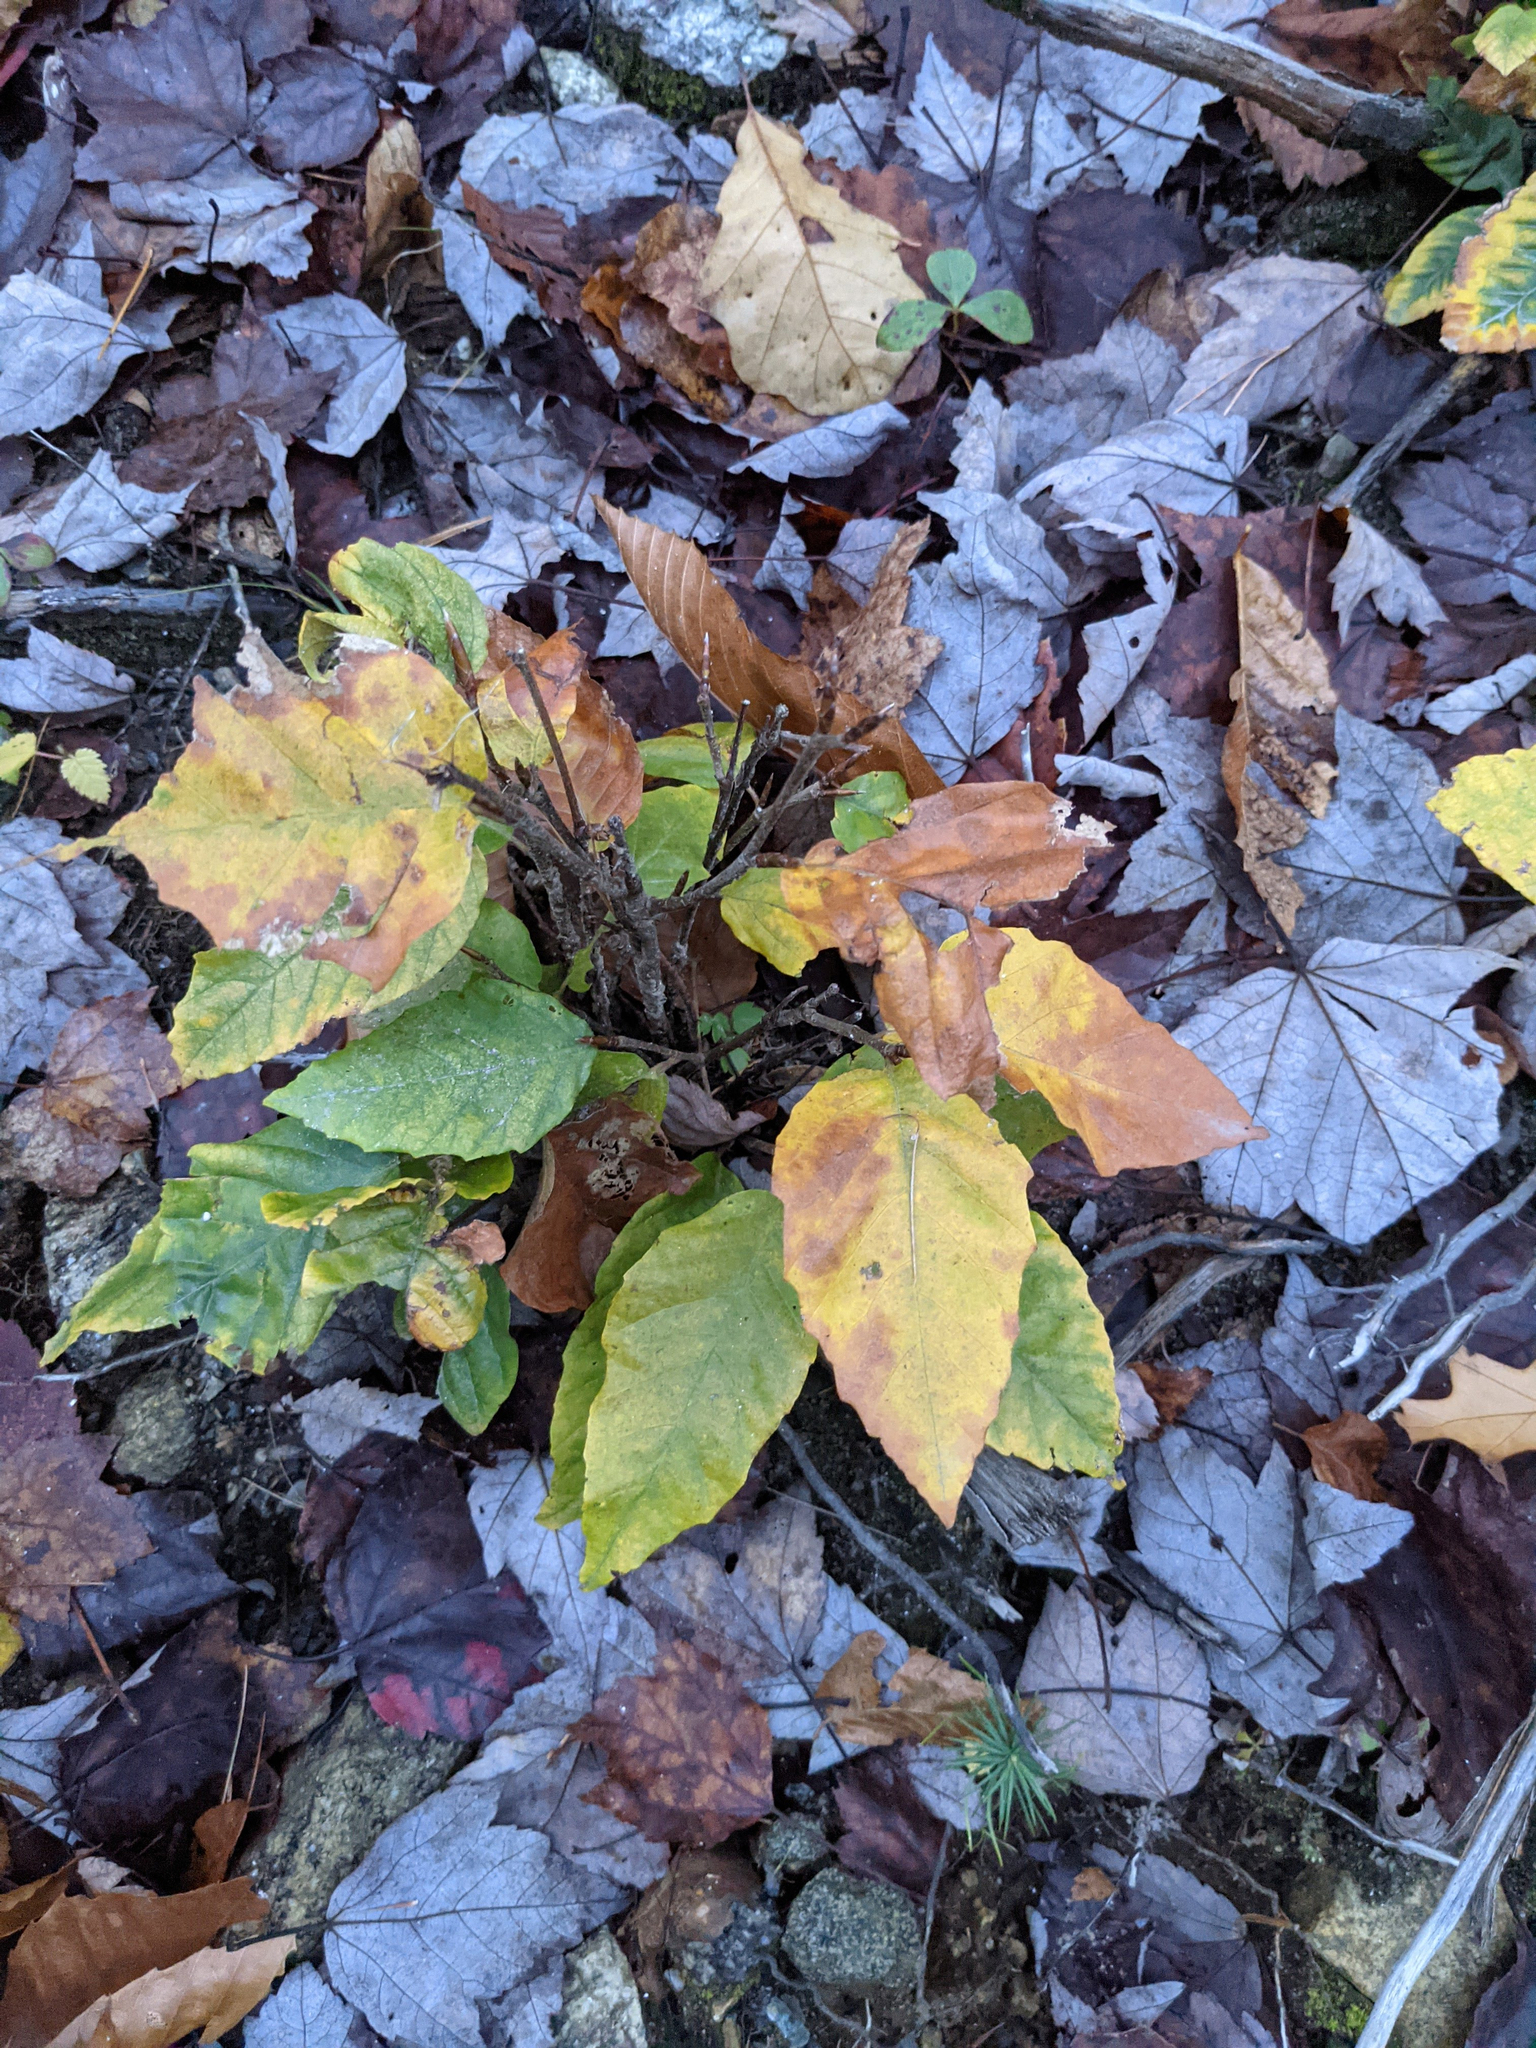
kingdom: Plantae
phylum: Tracheophyta
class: Magnoliopsida
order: Fagales
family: Fagaceae
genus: Fagus
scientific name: Fagus grandifolia
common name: American beech
